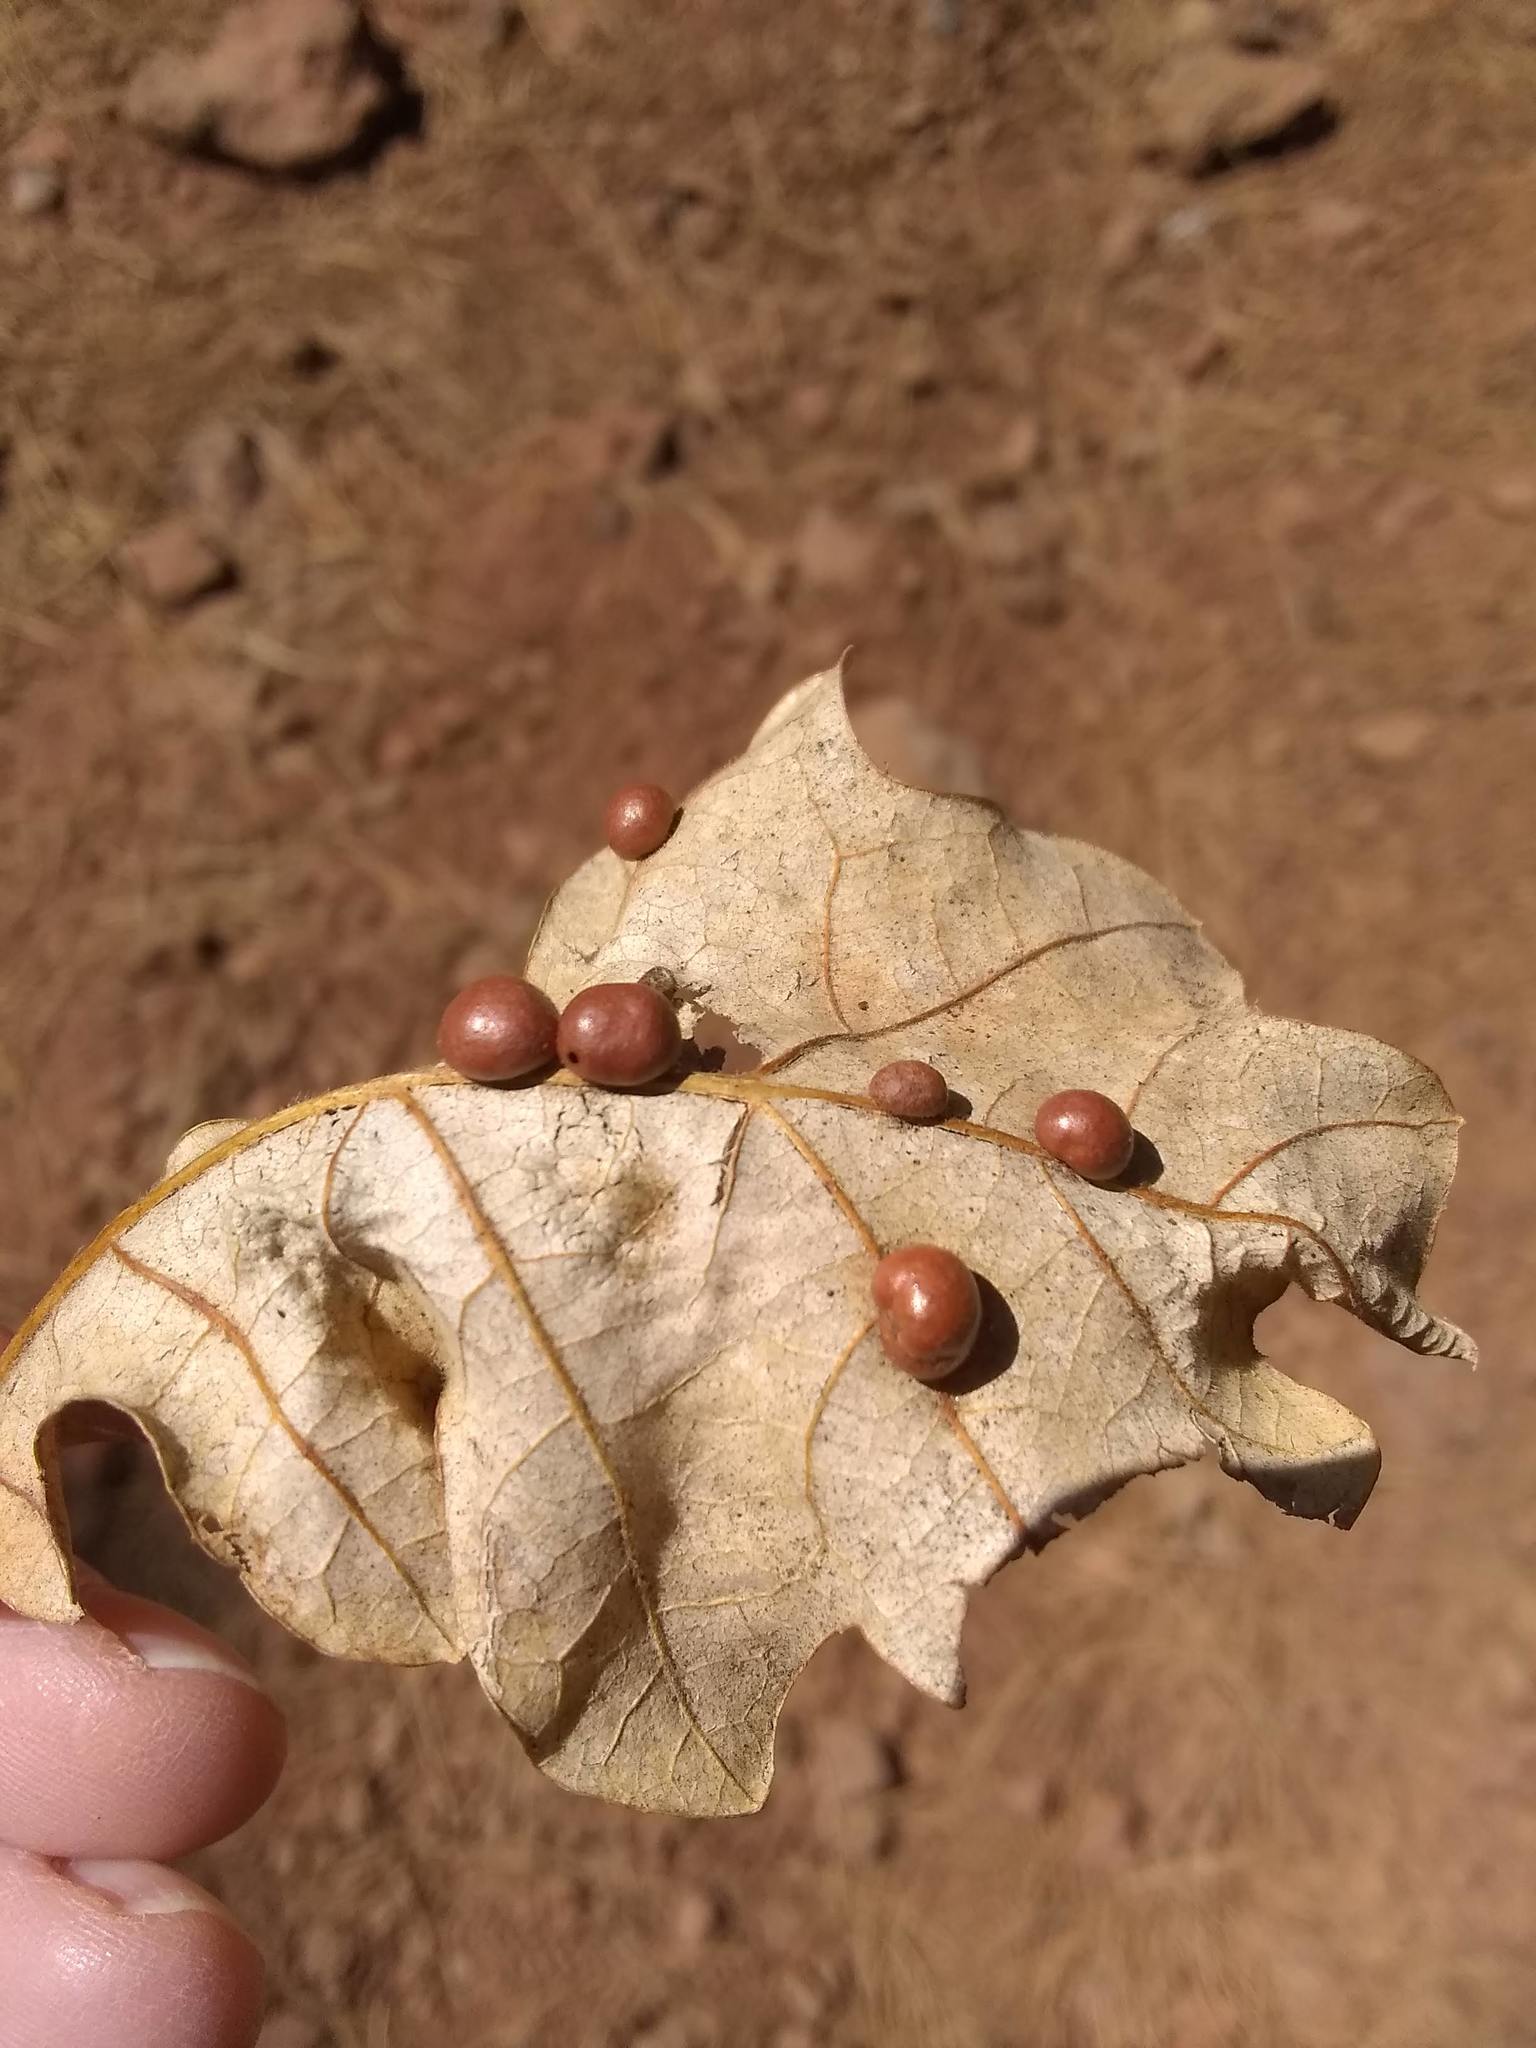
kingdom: Animalia
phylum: Arthropoda
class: Insecta
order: Hymenoptera
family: Cynipidae
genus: Trigonaspis
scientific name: Trigonaspis
